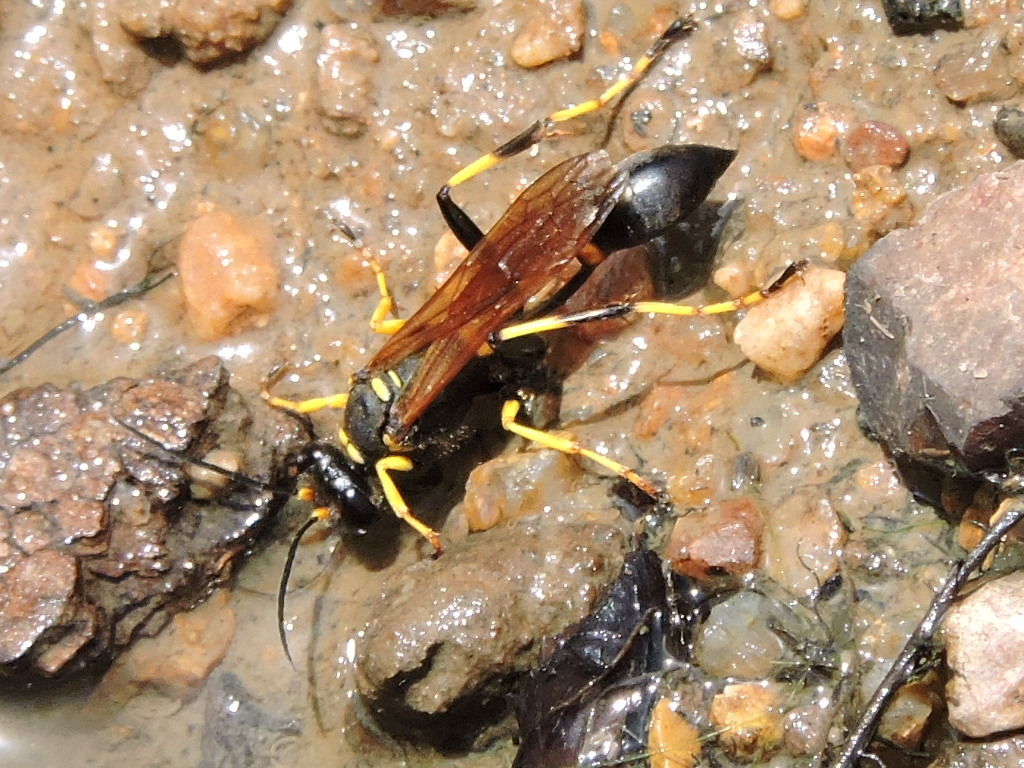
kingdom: Animalia
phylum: Arthropoda
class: Insecta
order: Hymenoptera
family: Sphecidae
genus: Sceliphron
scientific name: Sceliphron caementarium
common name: Mud dauber
